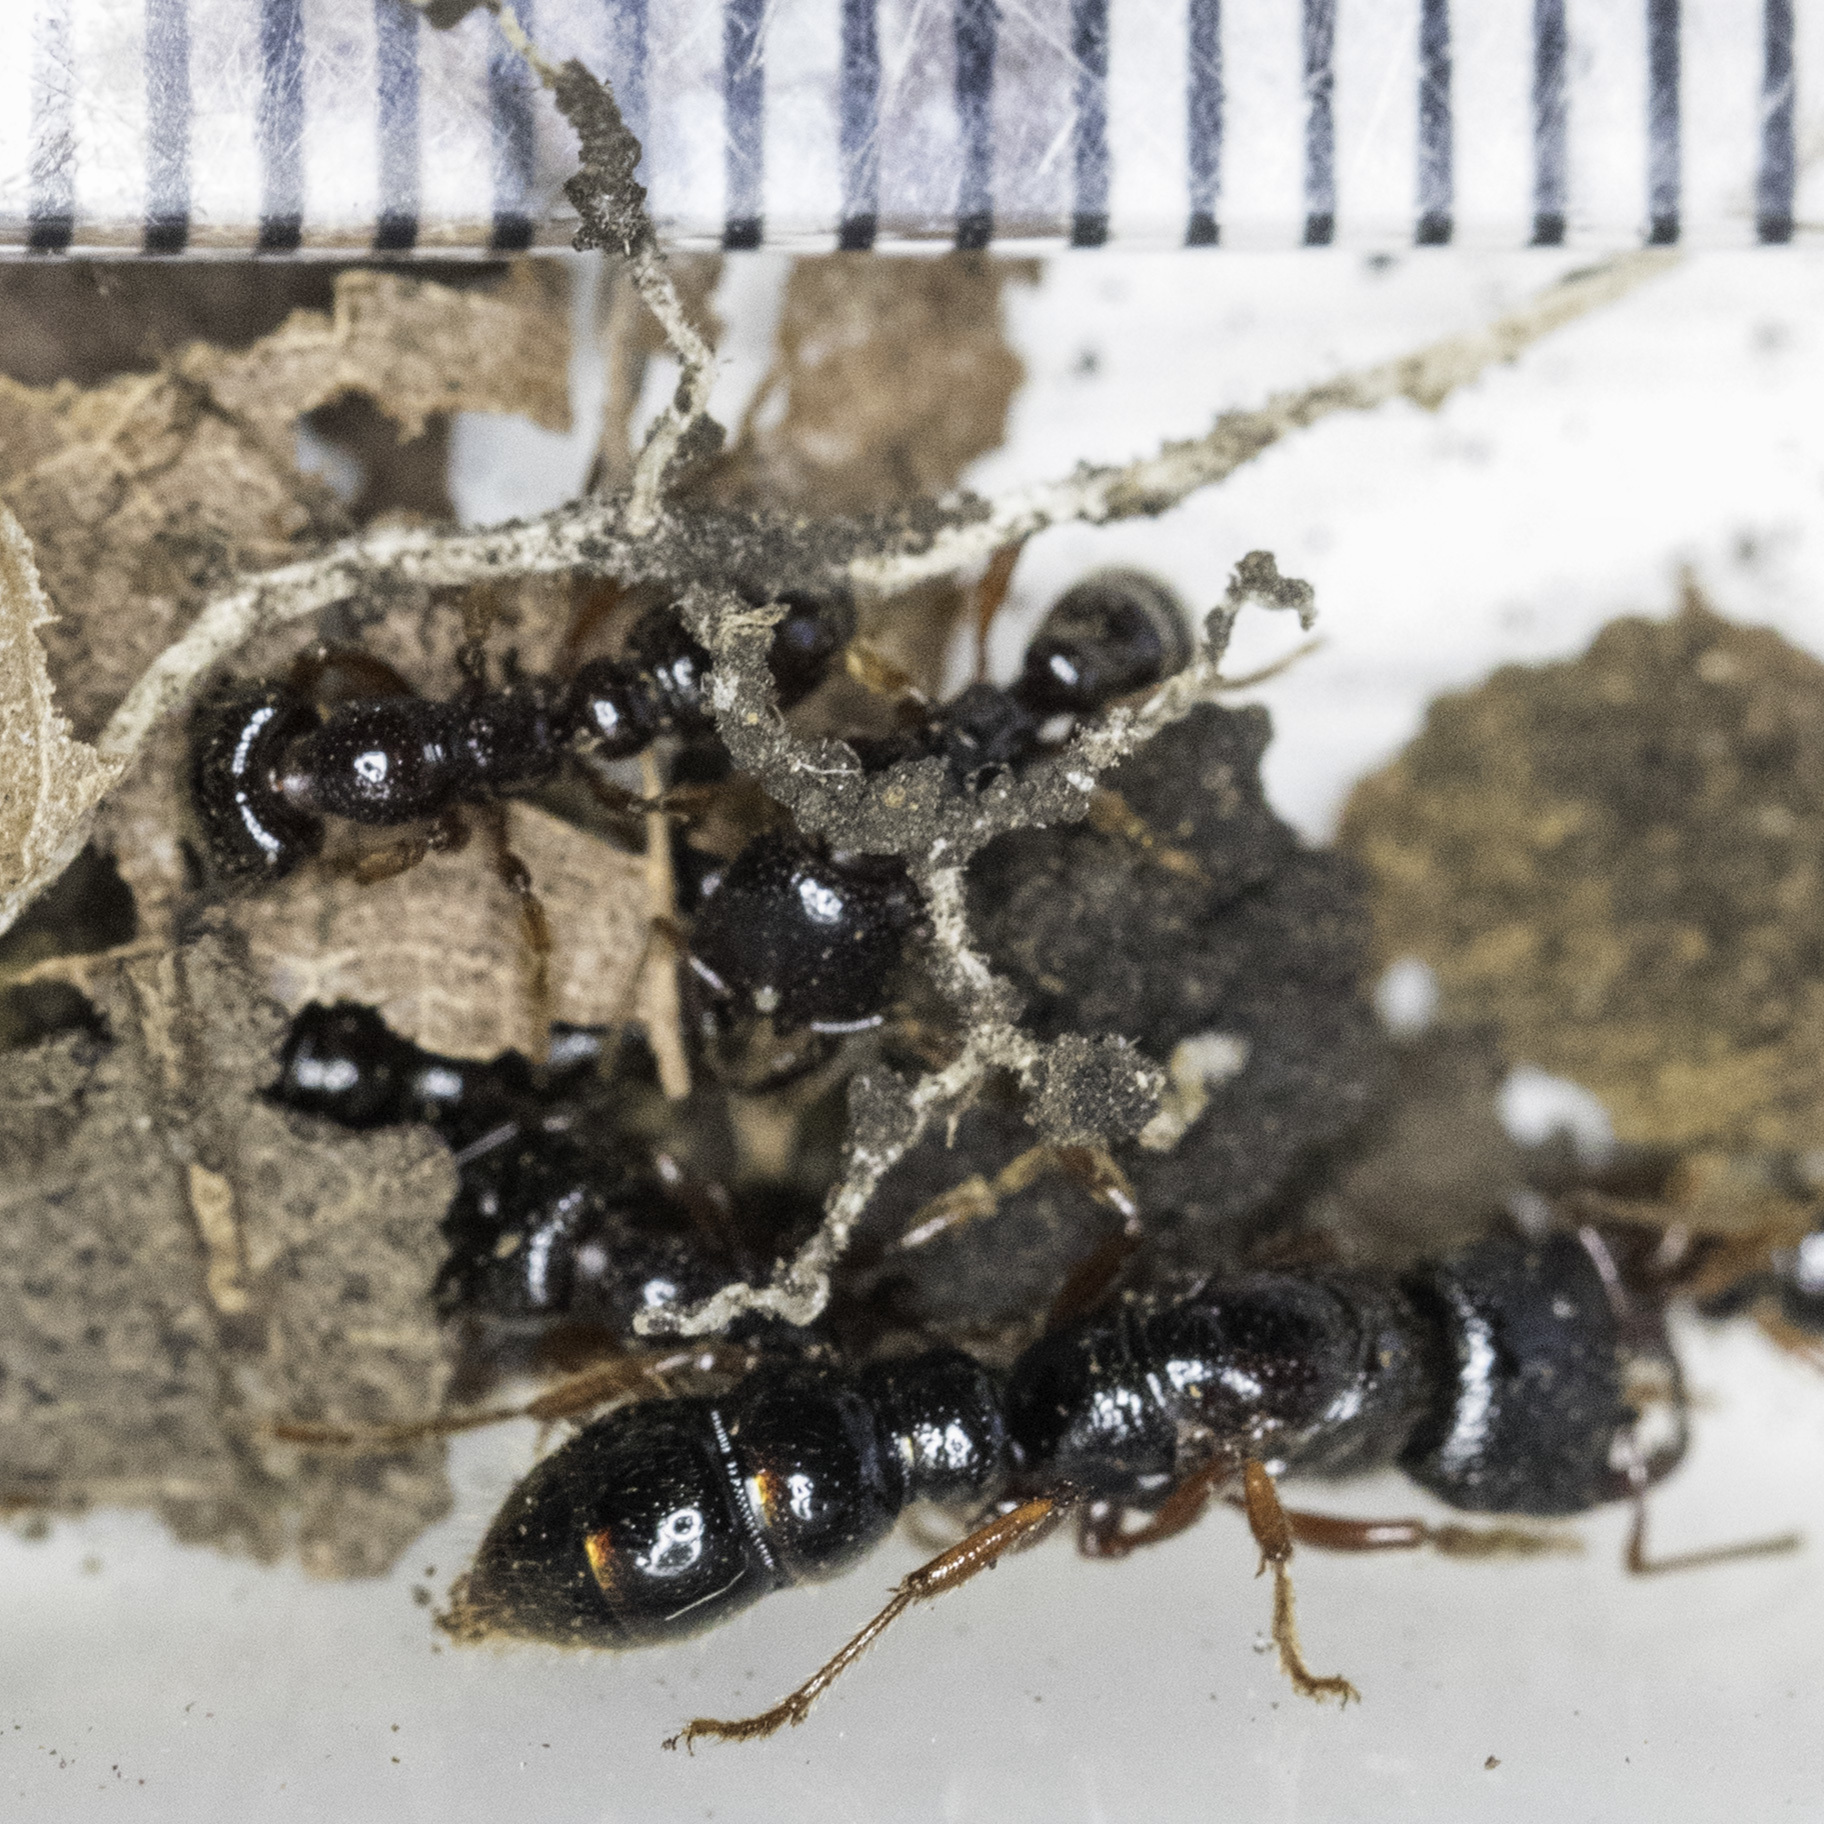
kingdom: Animalia
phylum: Arthropoda
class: Insecta
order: Hymenoptera
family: Formicidae
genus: Amblyopone
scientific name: Amblyopone australis
